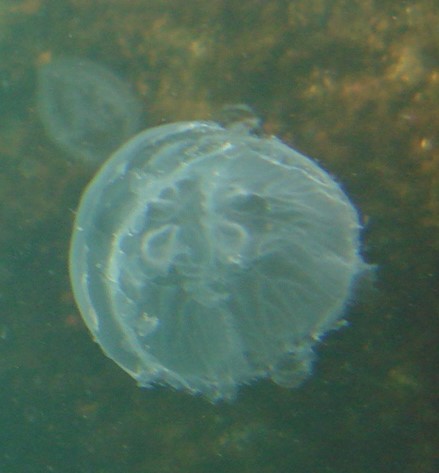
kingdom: Animalia
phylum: Cnidaria
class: Scyphozoa
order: Semaeostomeae
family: Ulmaridae
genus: Aurelia
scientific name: Aurelia aurita
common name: Moon jellyfish
